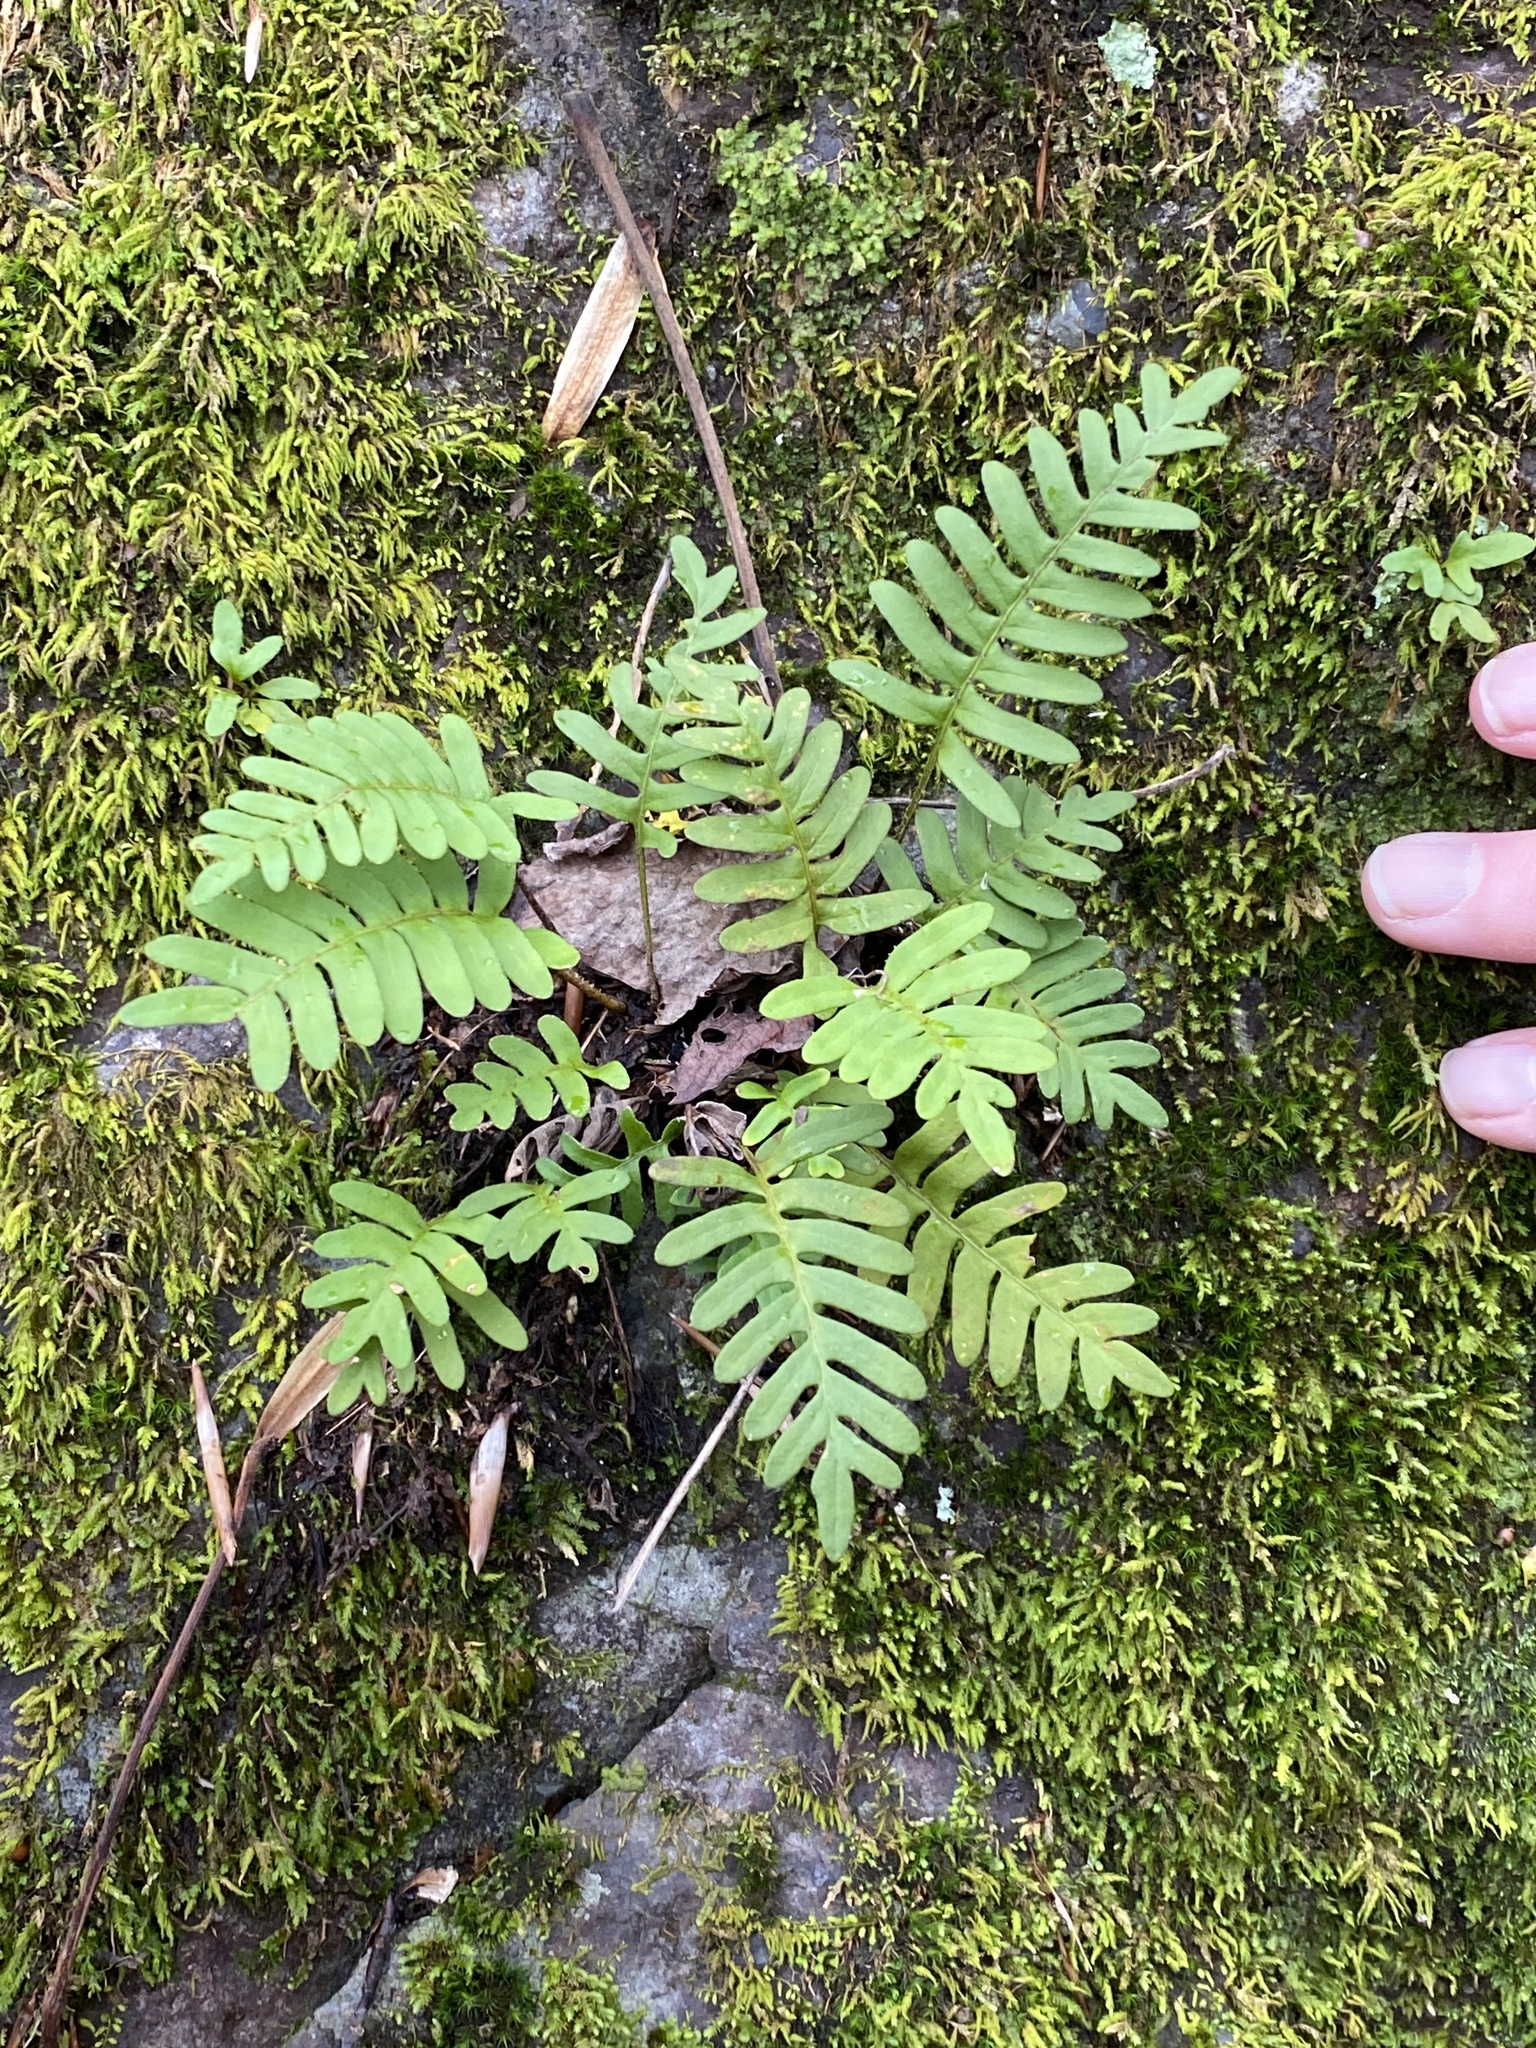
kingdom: Plantae
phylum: Tracheophyta
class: Polypodiopsida
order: Polypodiales
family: Polypodiaceae
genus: Pleopeltis
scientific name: Pleopeltis michauxiana
